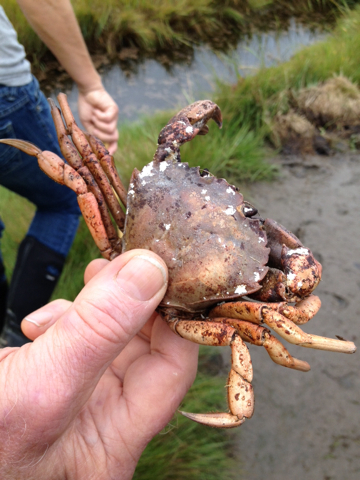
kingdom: Animalia
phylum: Arthropoda
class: Malacostraca
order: Decapoda
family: Carcinidae
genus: Carcinus
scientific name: Carcinus maenas
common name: European green crab
